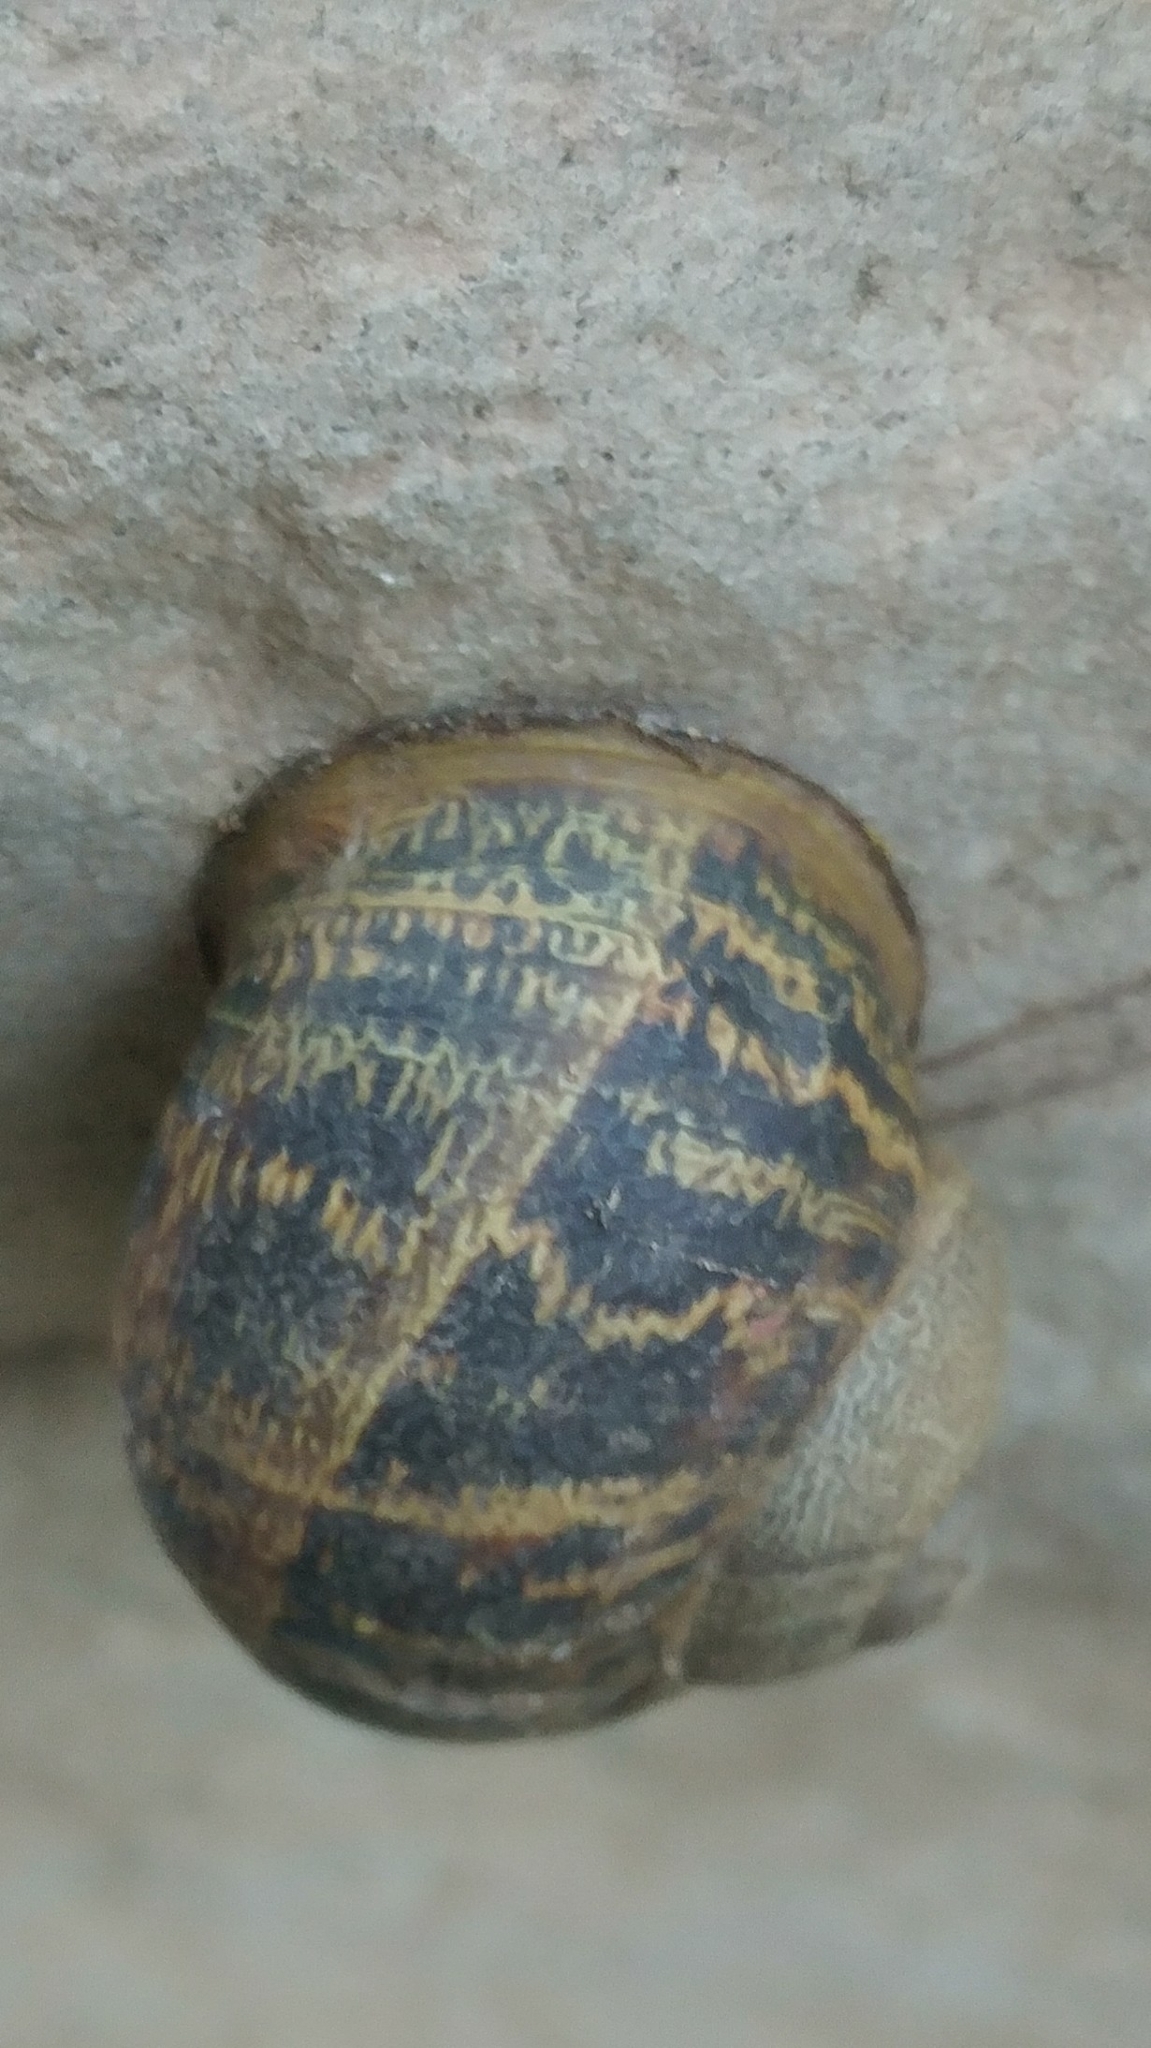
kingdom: Animalia
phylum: Mollusca
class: Gastropoda
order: Stylommatophora
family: Helicidae
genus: Cornu
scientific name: Cornu aspersum
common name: Brown garden snail
